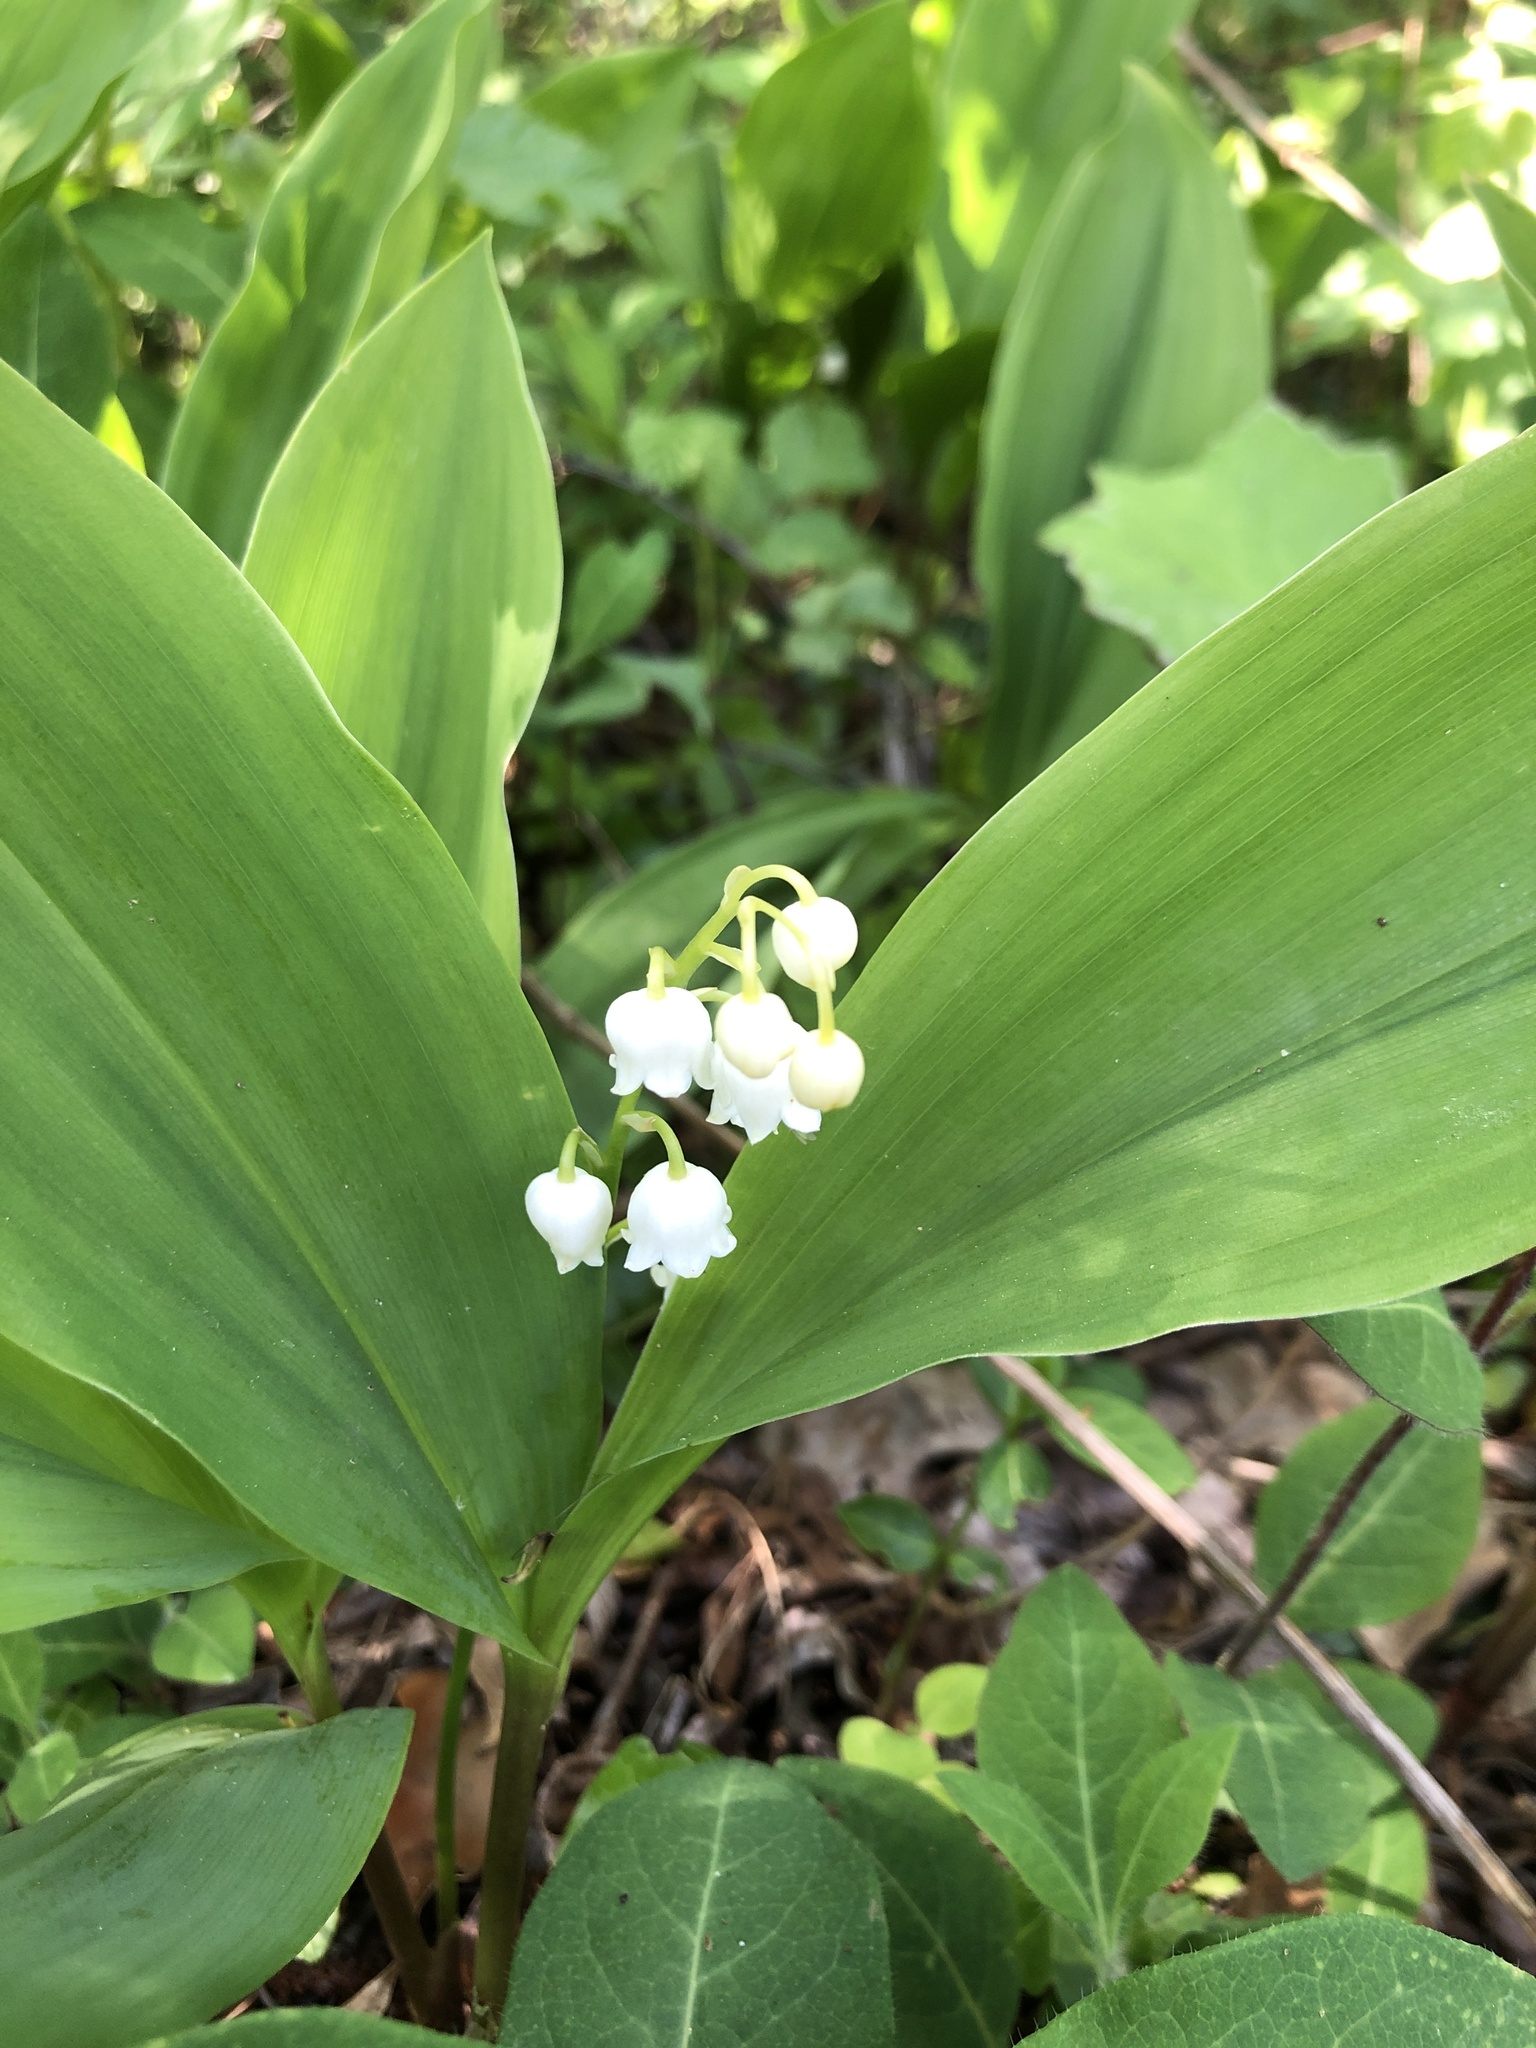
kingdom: Plantae
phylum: Tracheophyta
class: Liliopsida
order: Asparagales
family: Asparagaceae
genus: Convallaria
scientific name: Convallaria majalis
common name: Lily-of-the-valley
